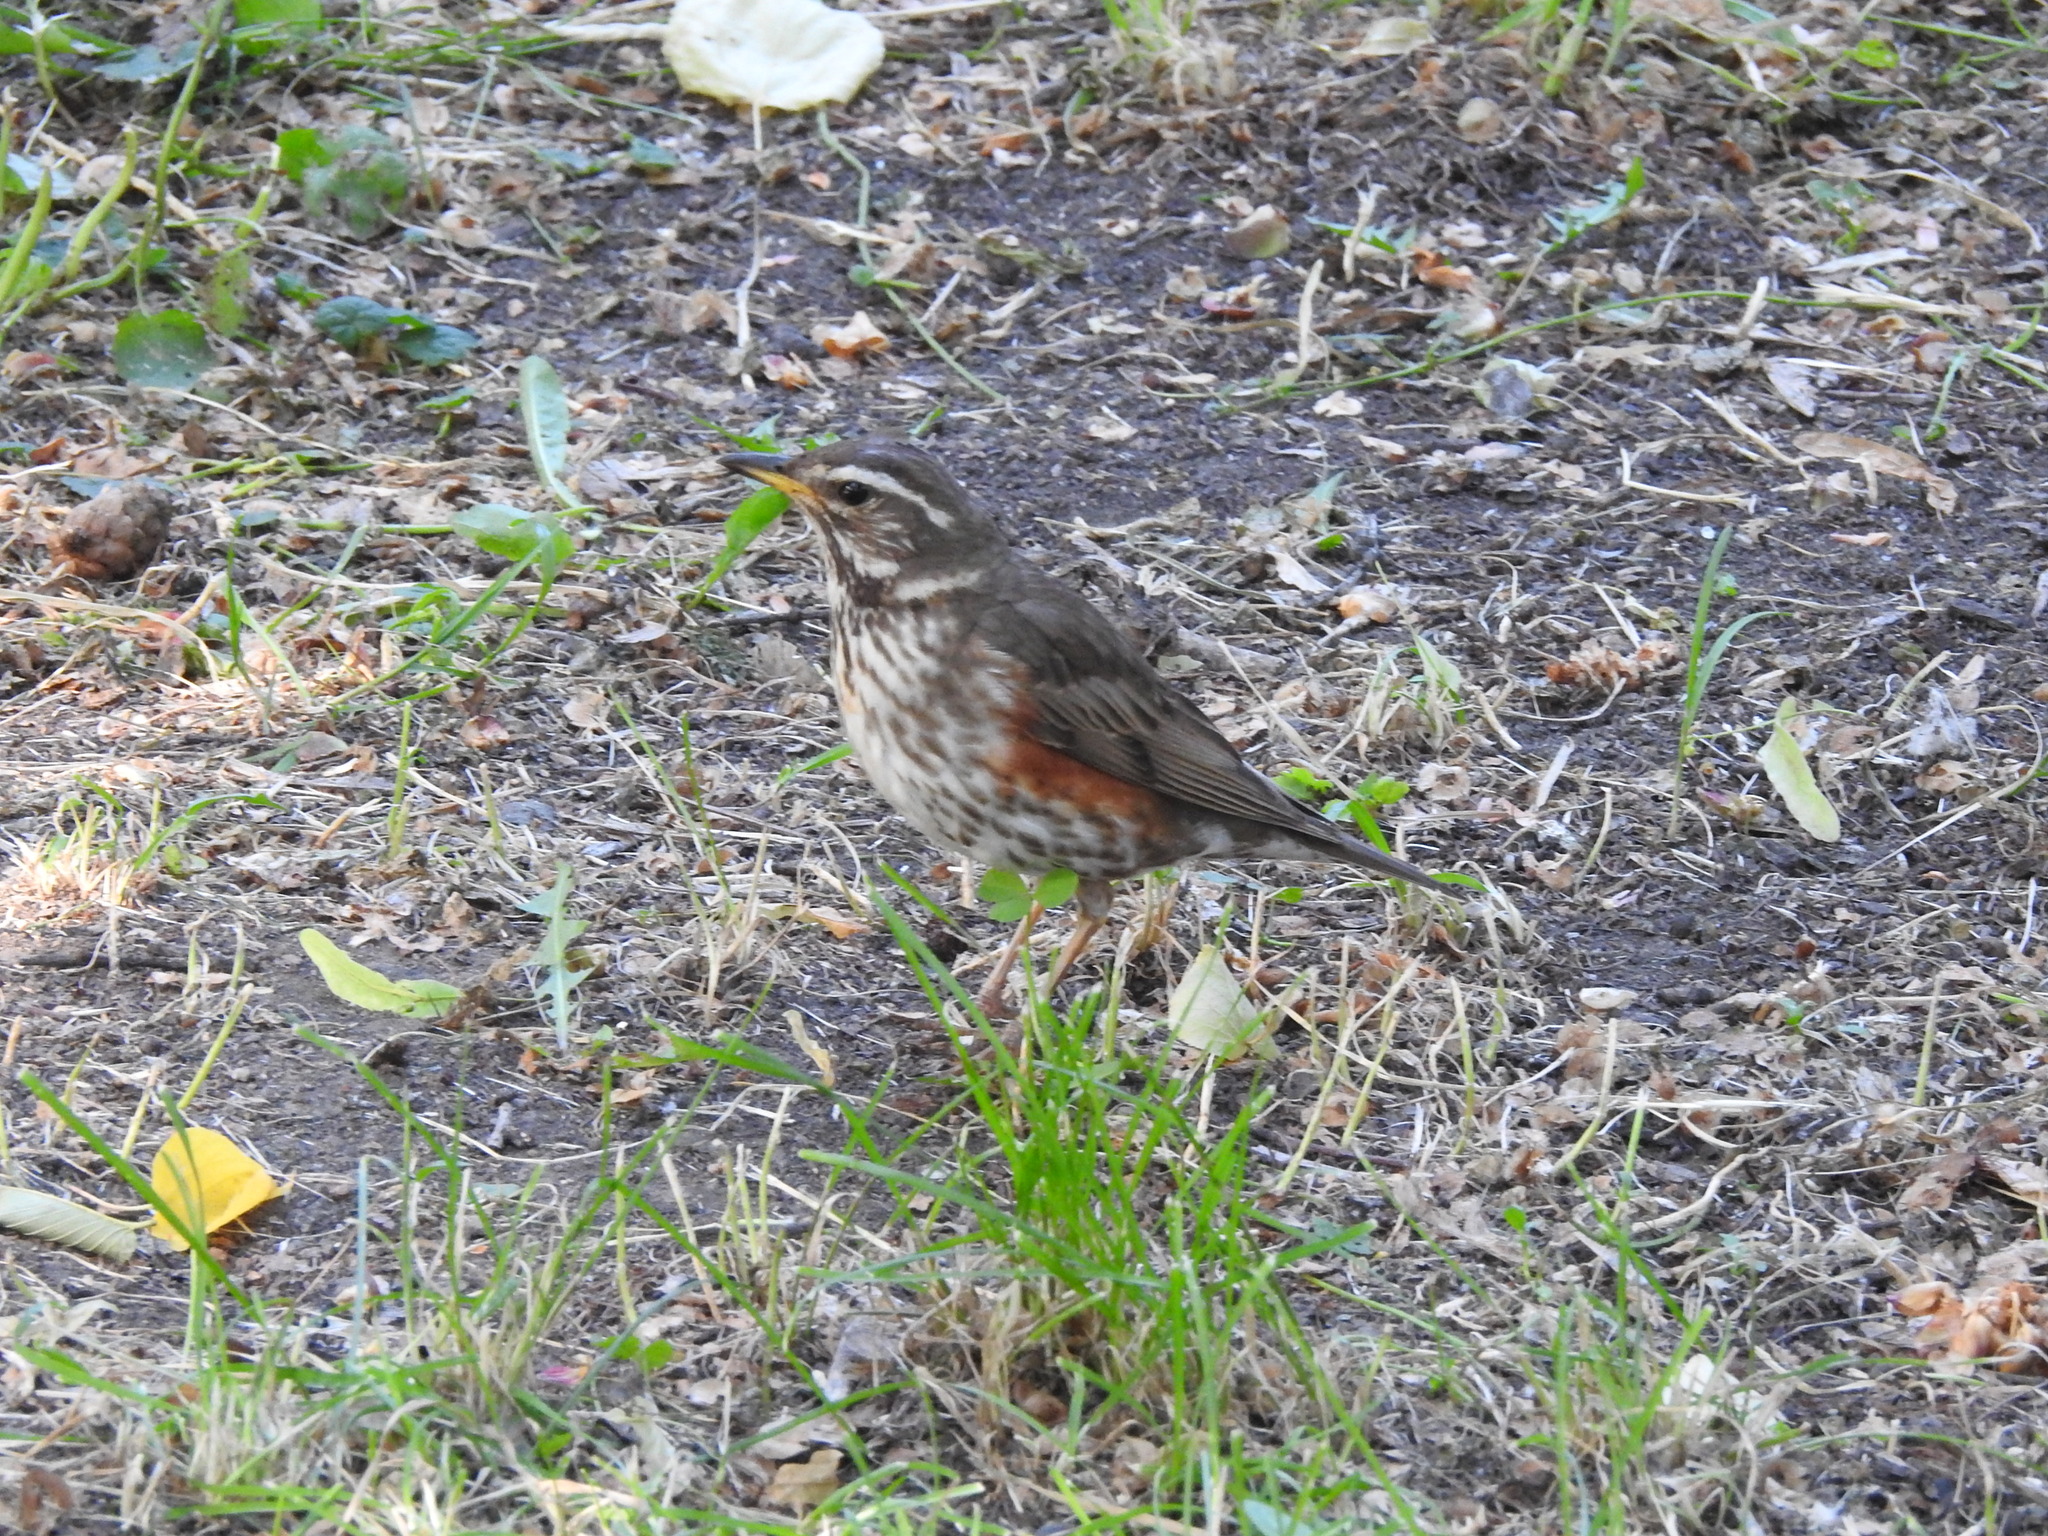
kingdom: Animalia
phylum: Chordata
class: Aves
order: Passeriformes
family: Turdidae
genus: Turdus
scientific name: Turdus iliacus
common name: Redwing
